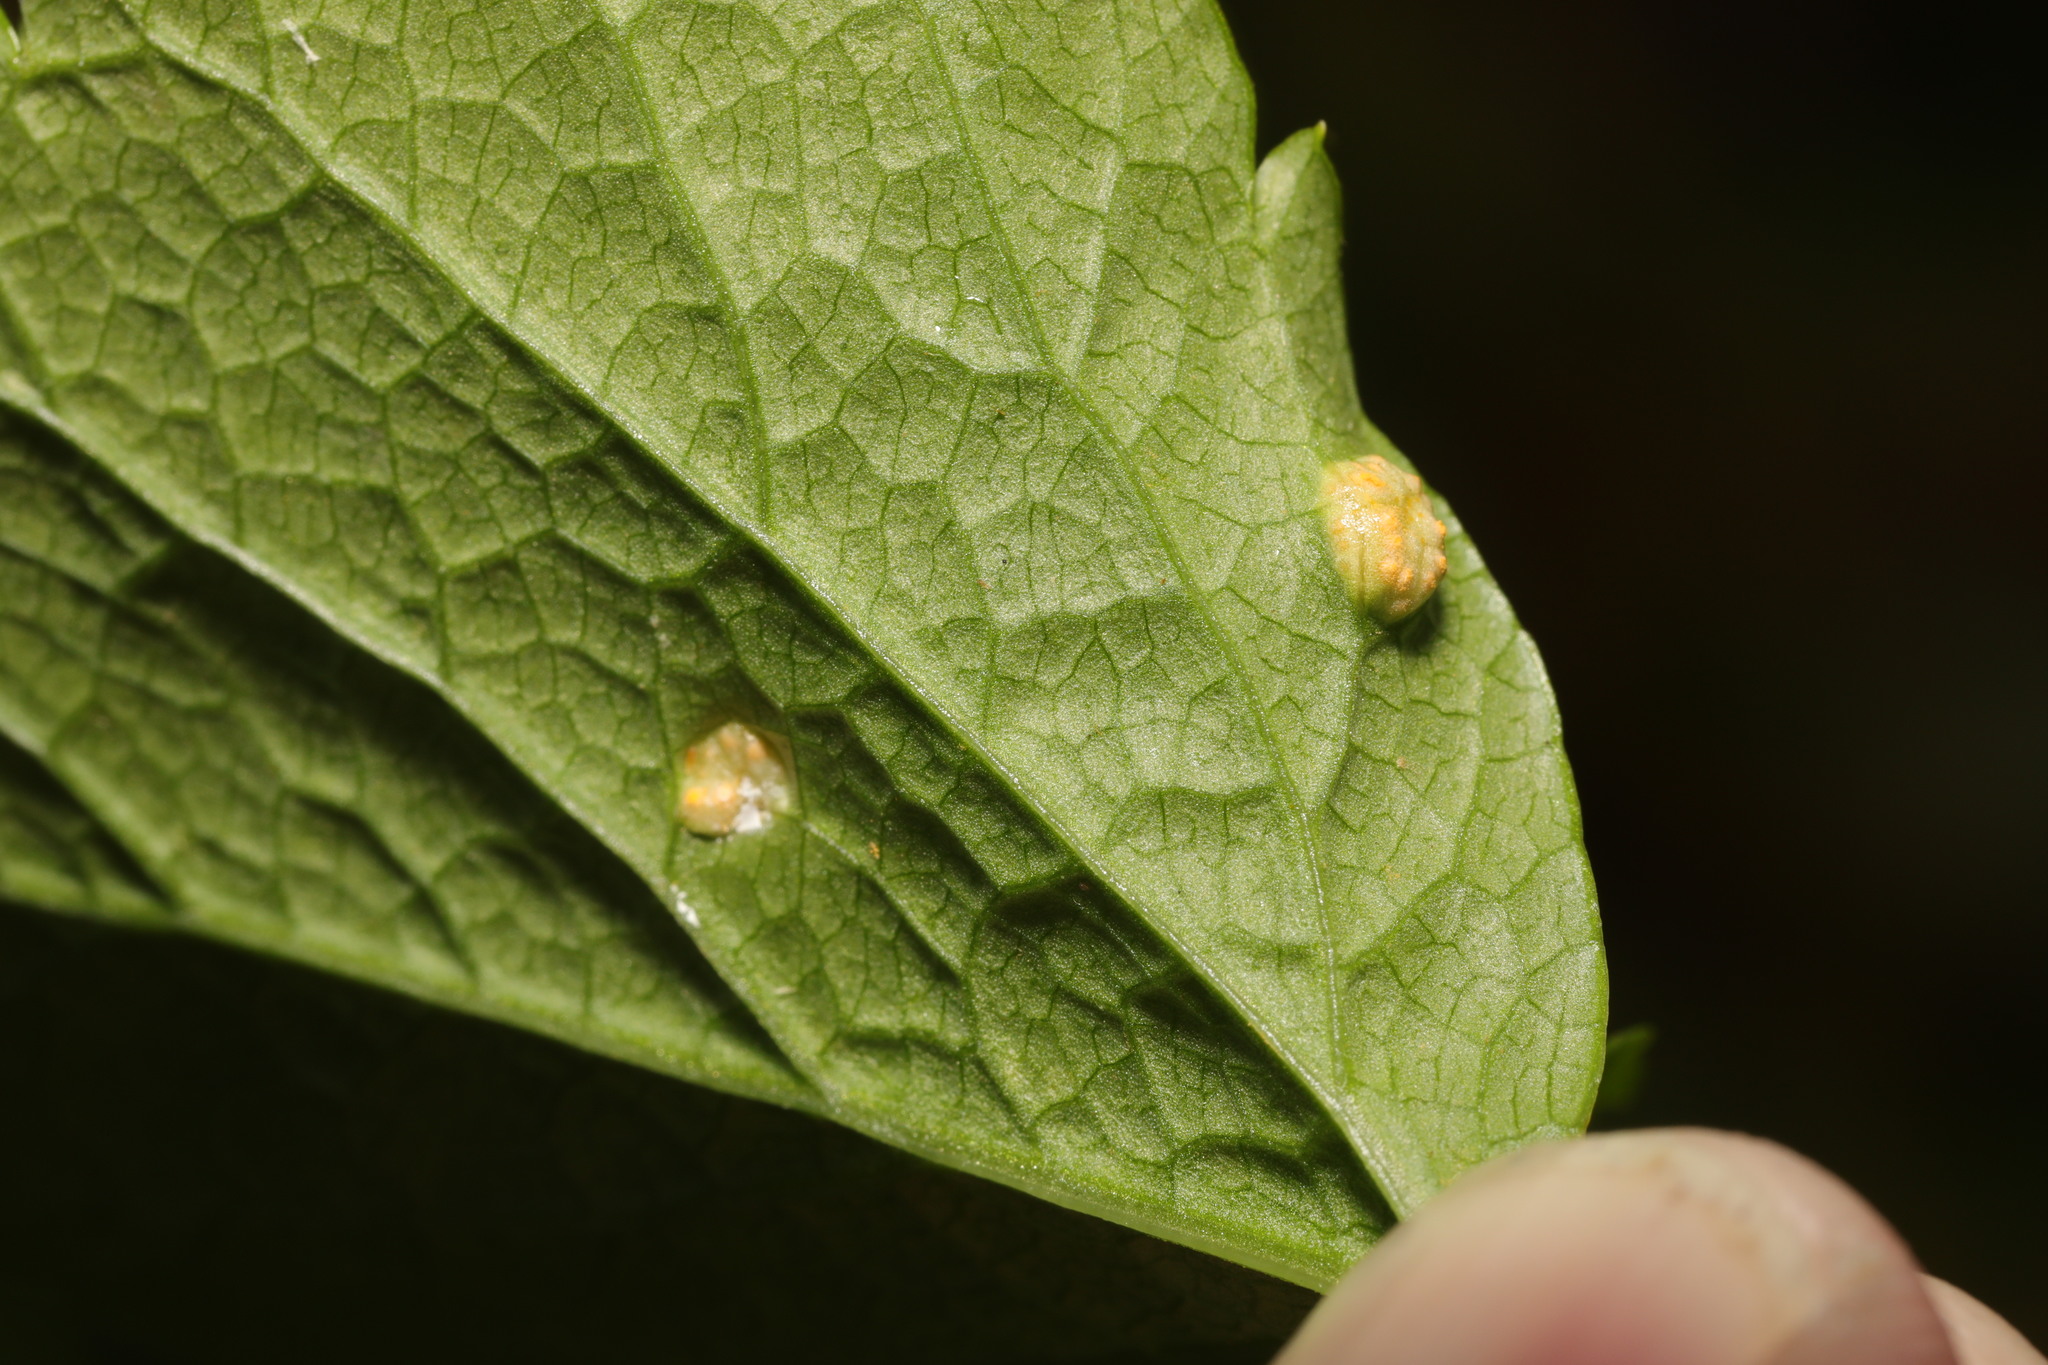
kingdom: Fungi
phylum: Basidiomycota
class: Pucciniomycetes
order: Pucciniales
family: Pucciniaceae
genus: Puccinia
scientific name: Puccinia smyrnii
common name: Alexanders rust
